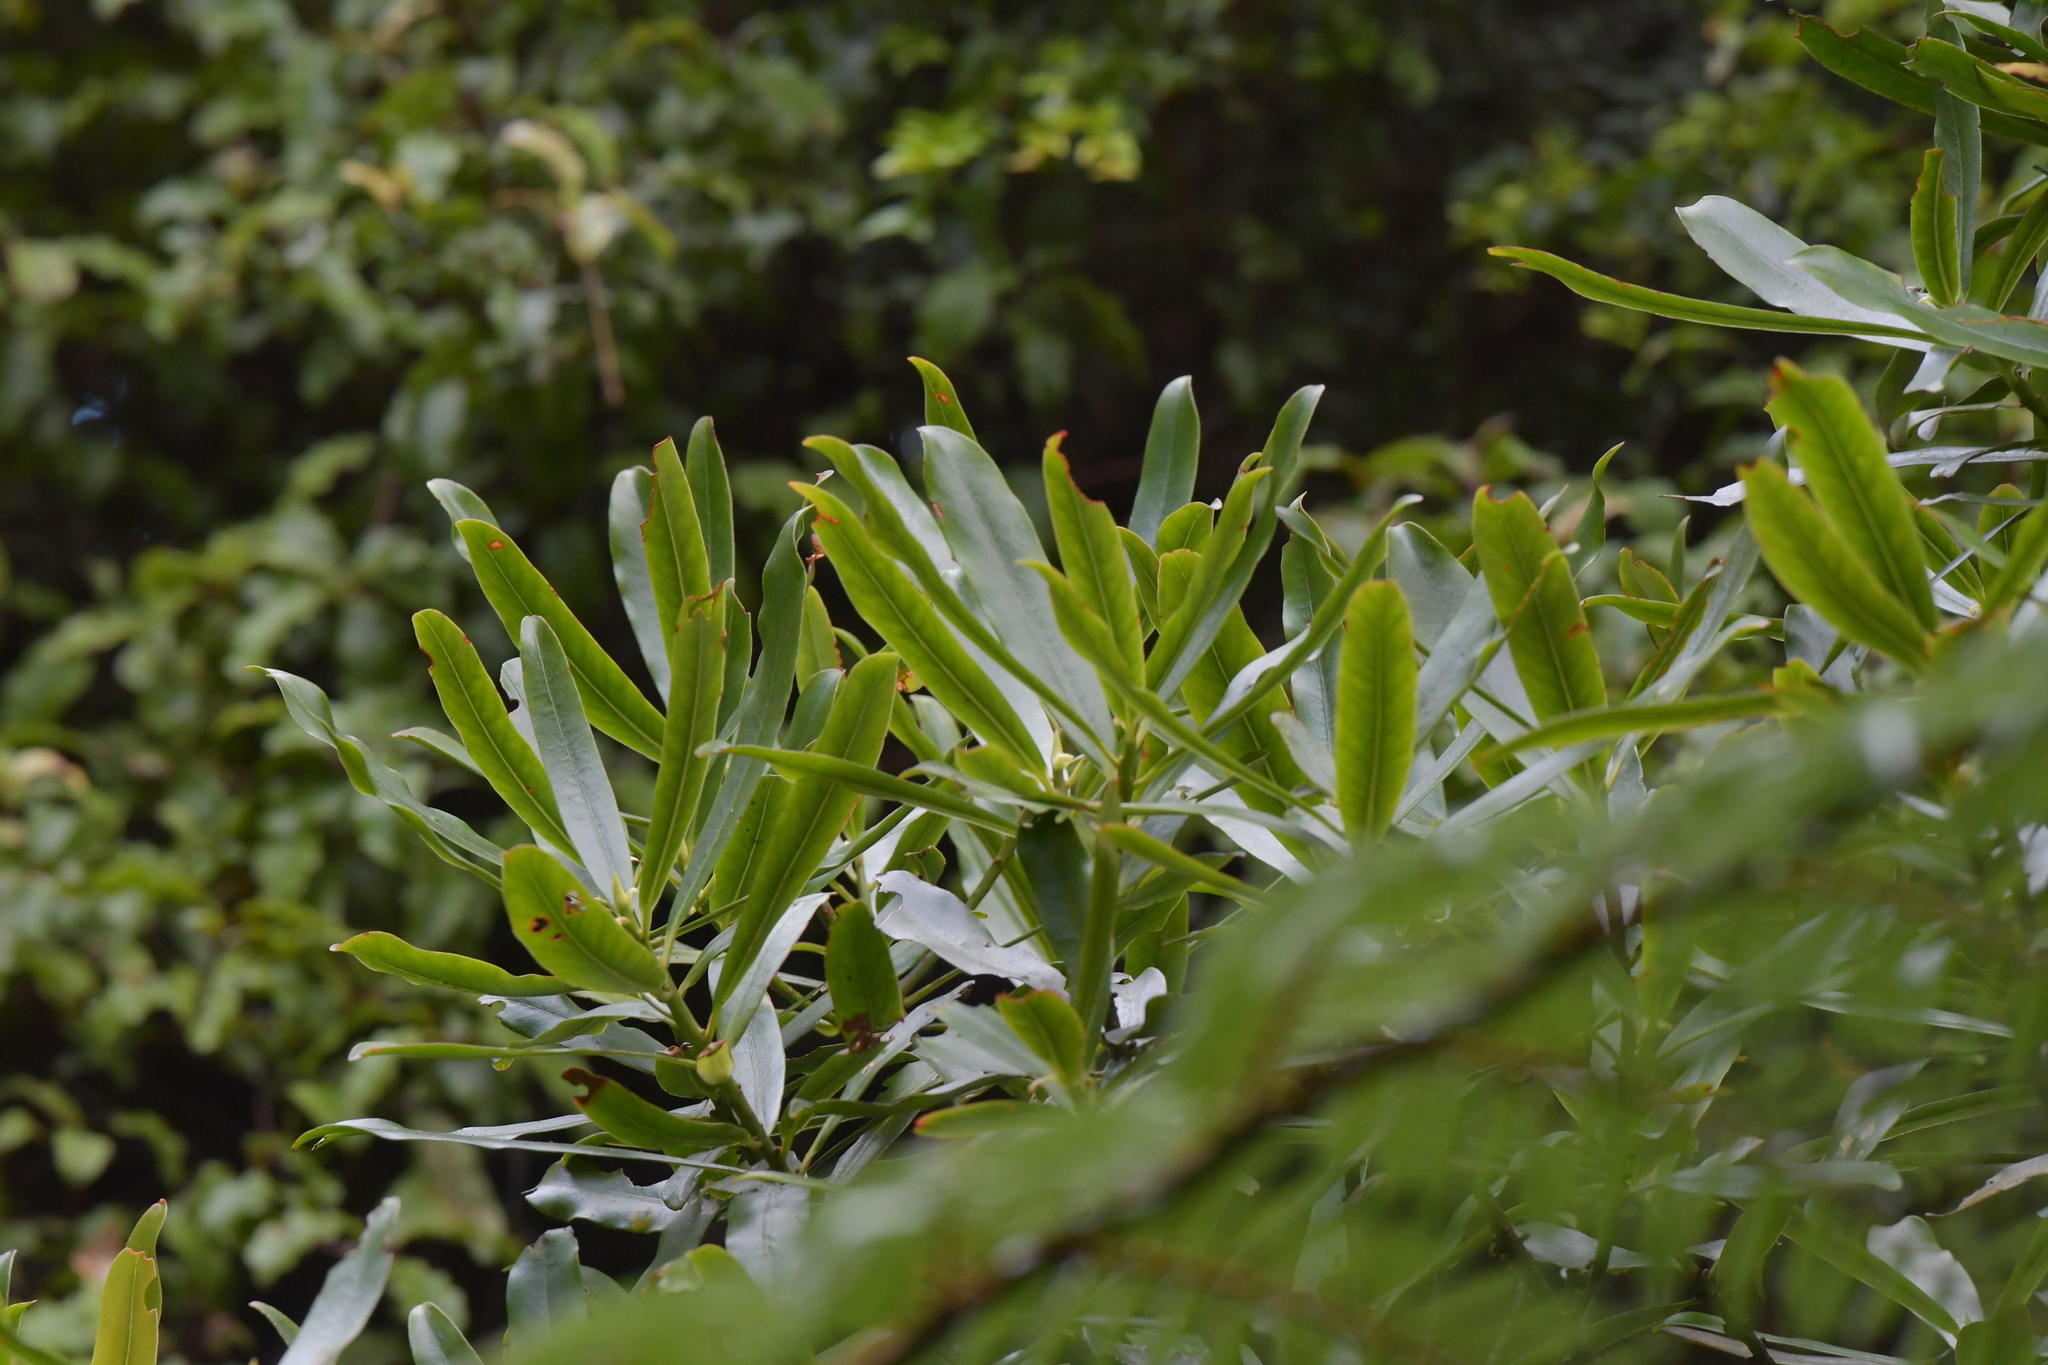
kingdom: Plantae
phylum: Tracheophyta
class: Magnoliopsida
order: Ericales
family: Primulaceae
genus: Myrsine
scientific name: Myrsine salicina
